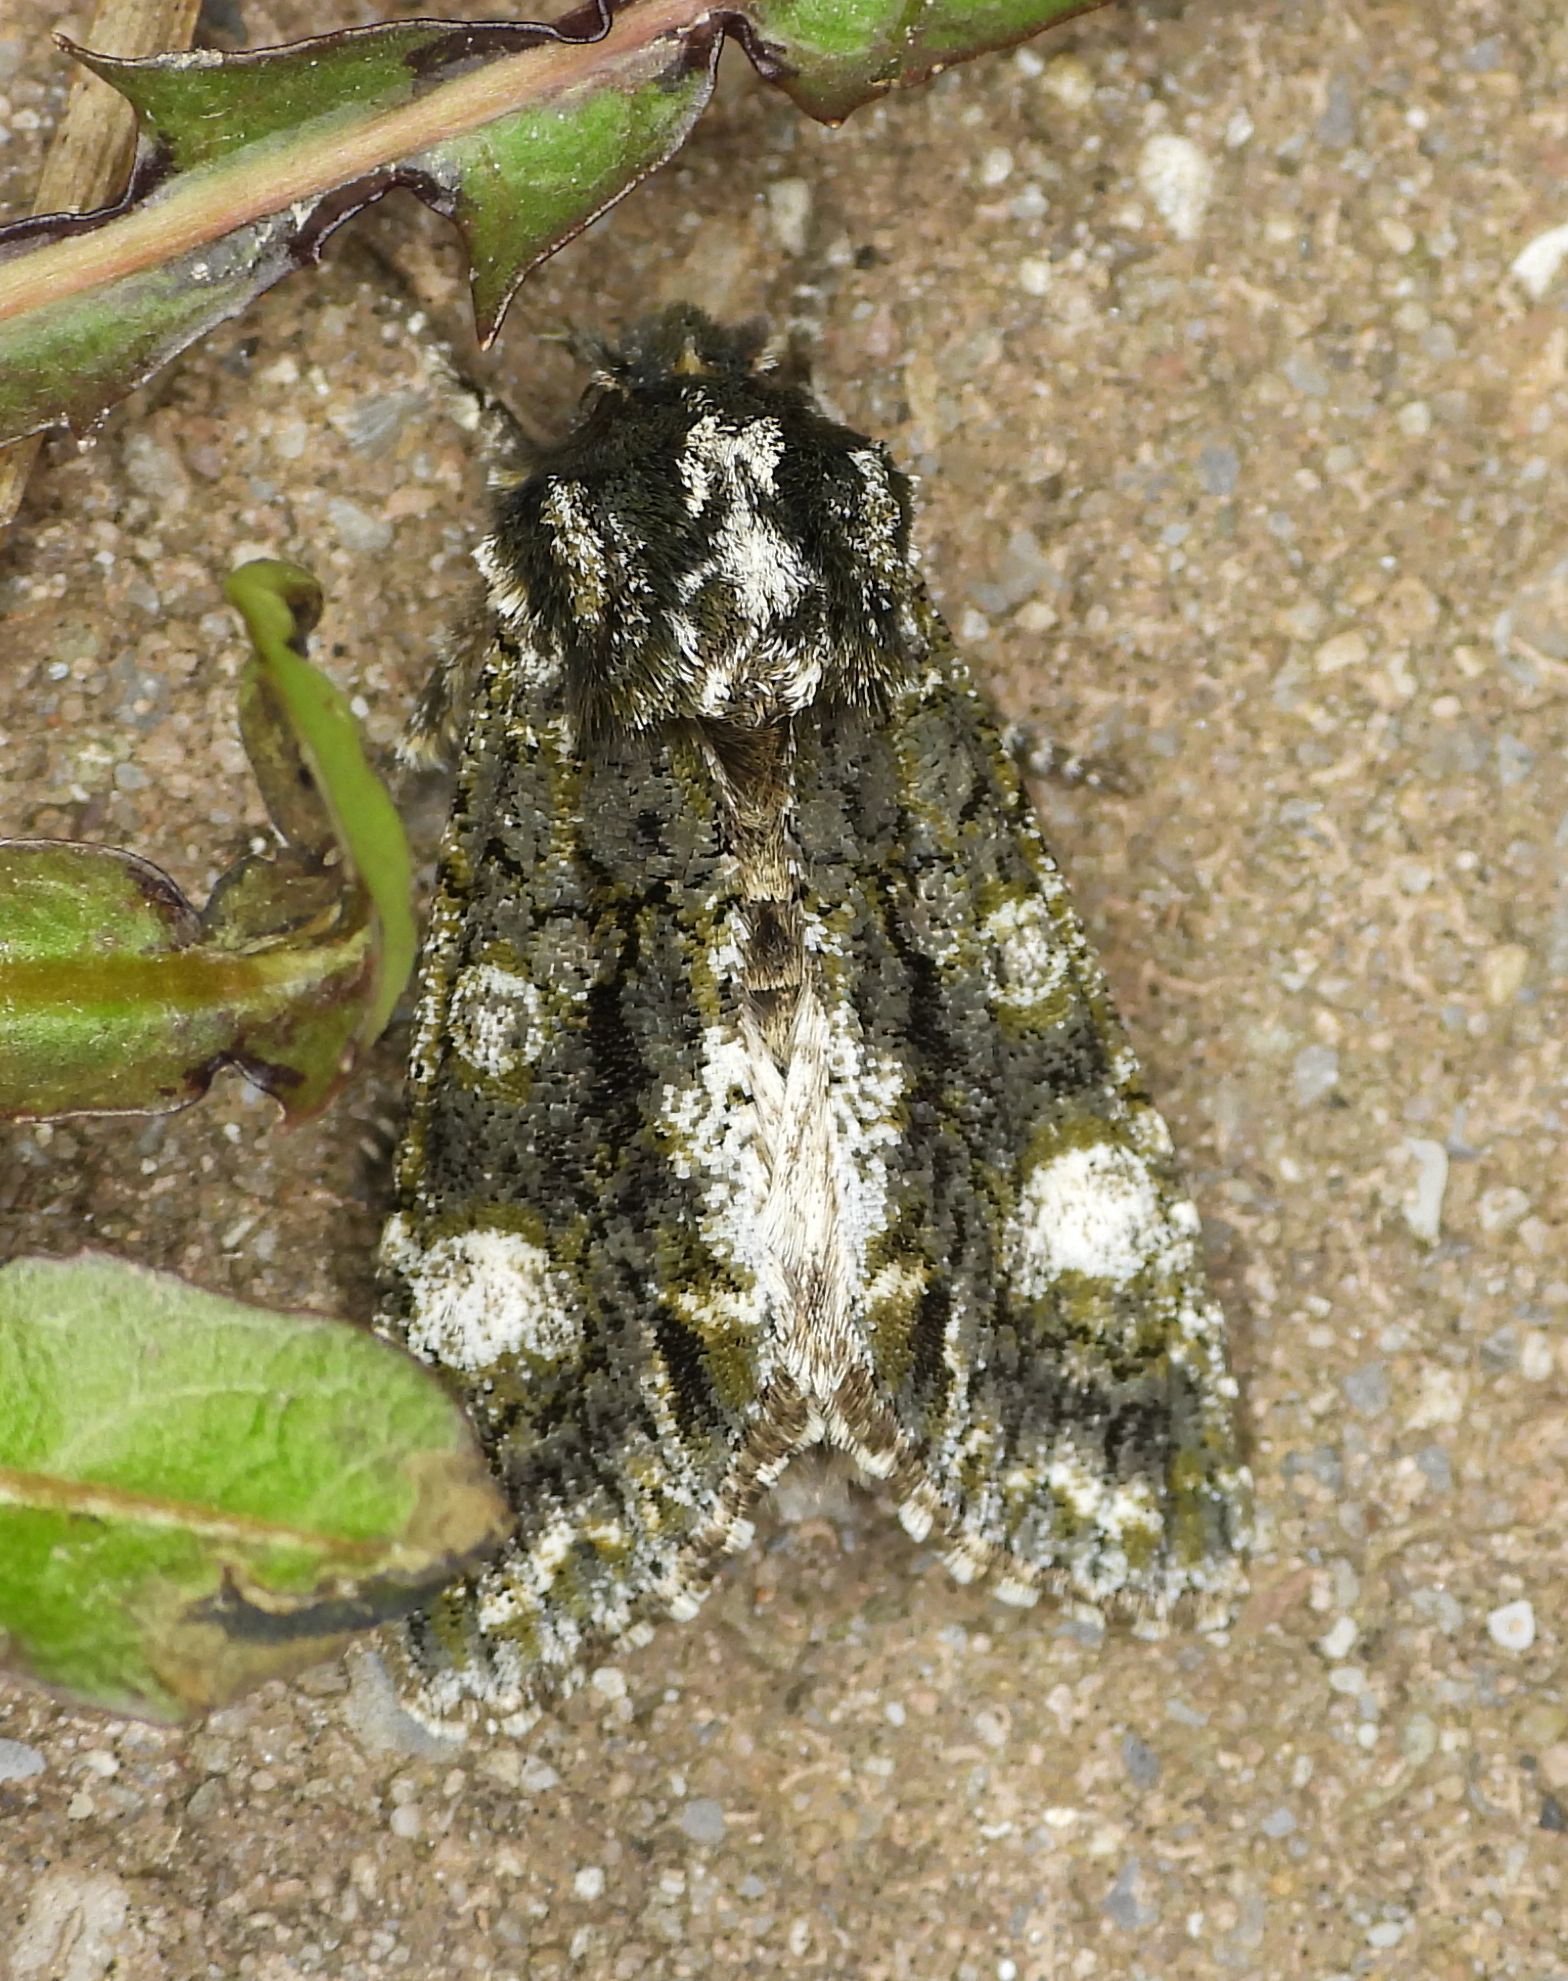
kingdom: Animalia
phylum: Arthropoda
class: Insecta
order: Lepidoptera
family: Noctuidae
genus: Psaphida
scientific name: Psaphida grotei
